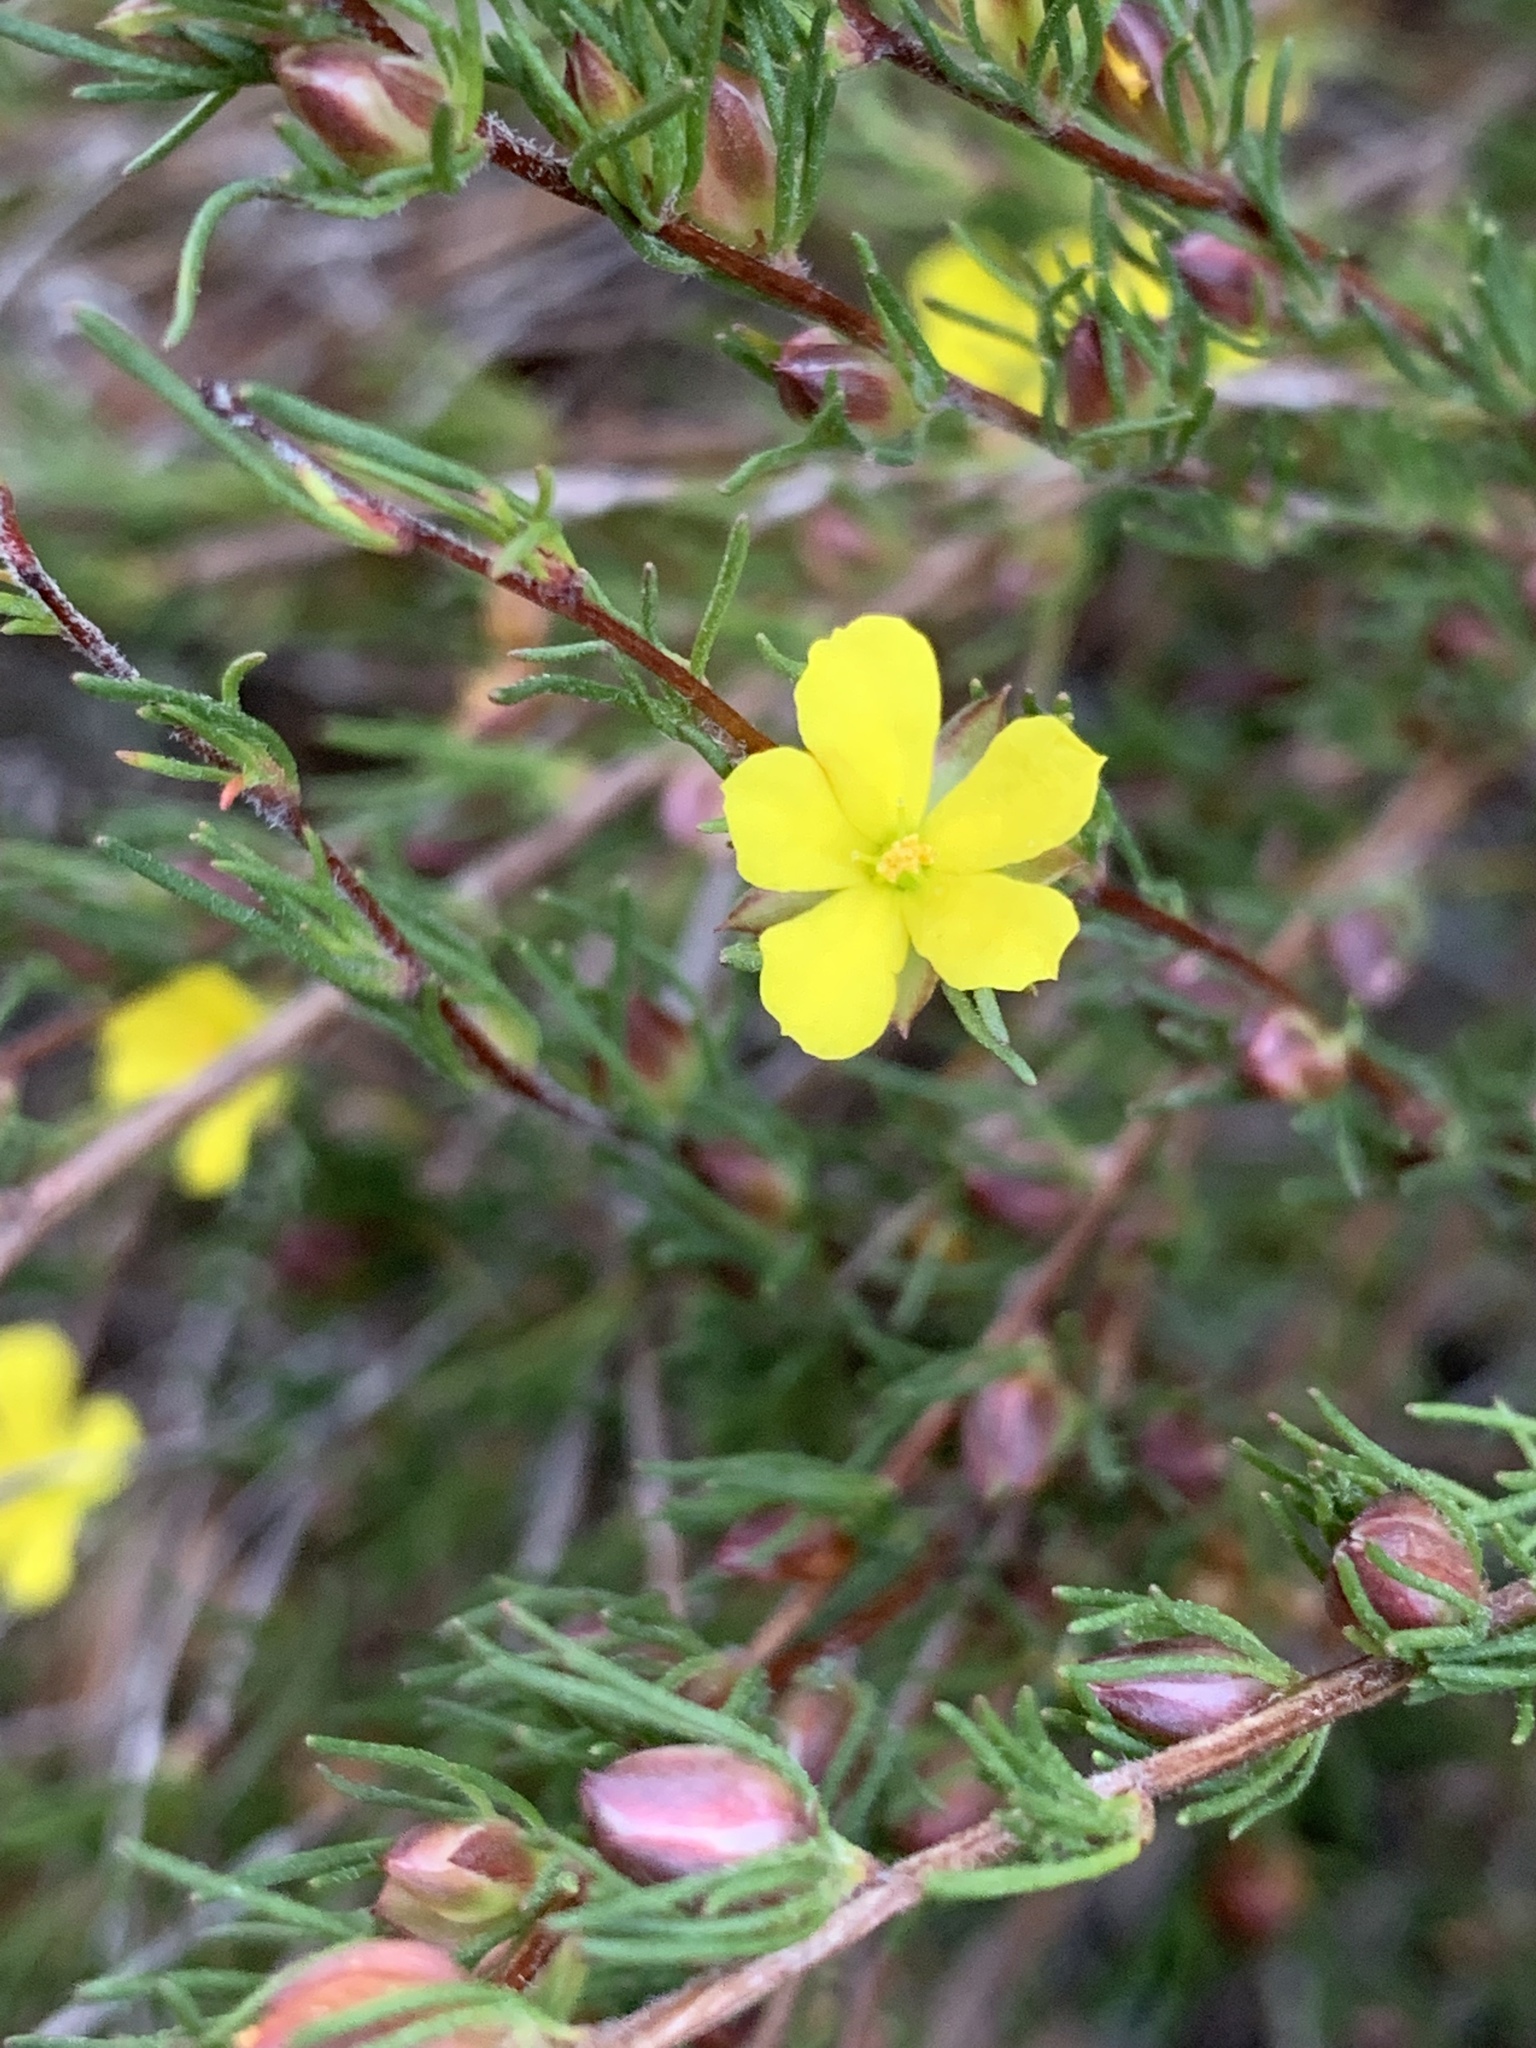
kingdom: Plantae
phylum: Tracheophyta
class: Magnoliopsida
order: Dilleniales
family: Dilleniaceae
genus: Hibbertia
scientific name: Hibbertia fasciculata
